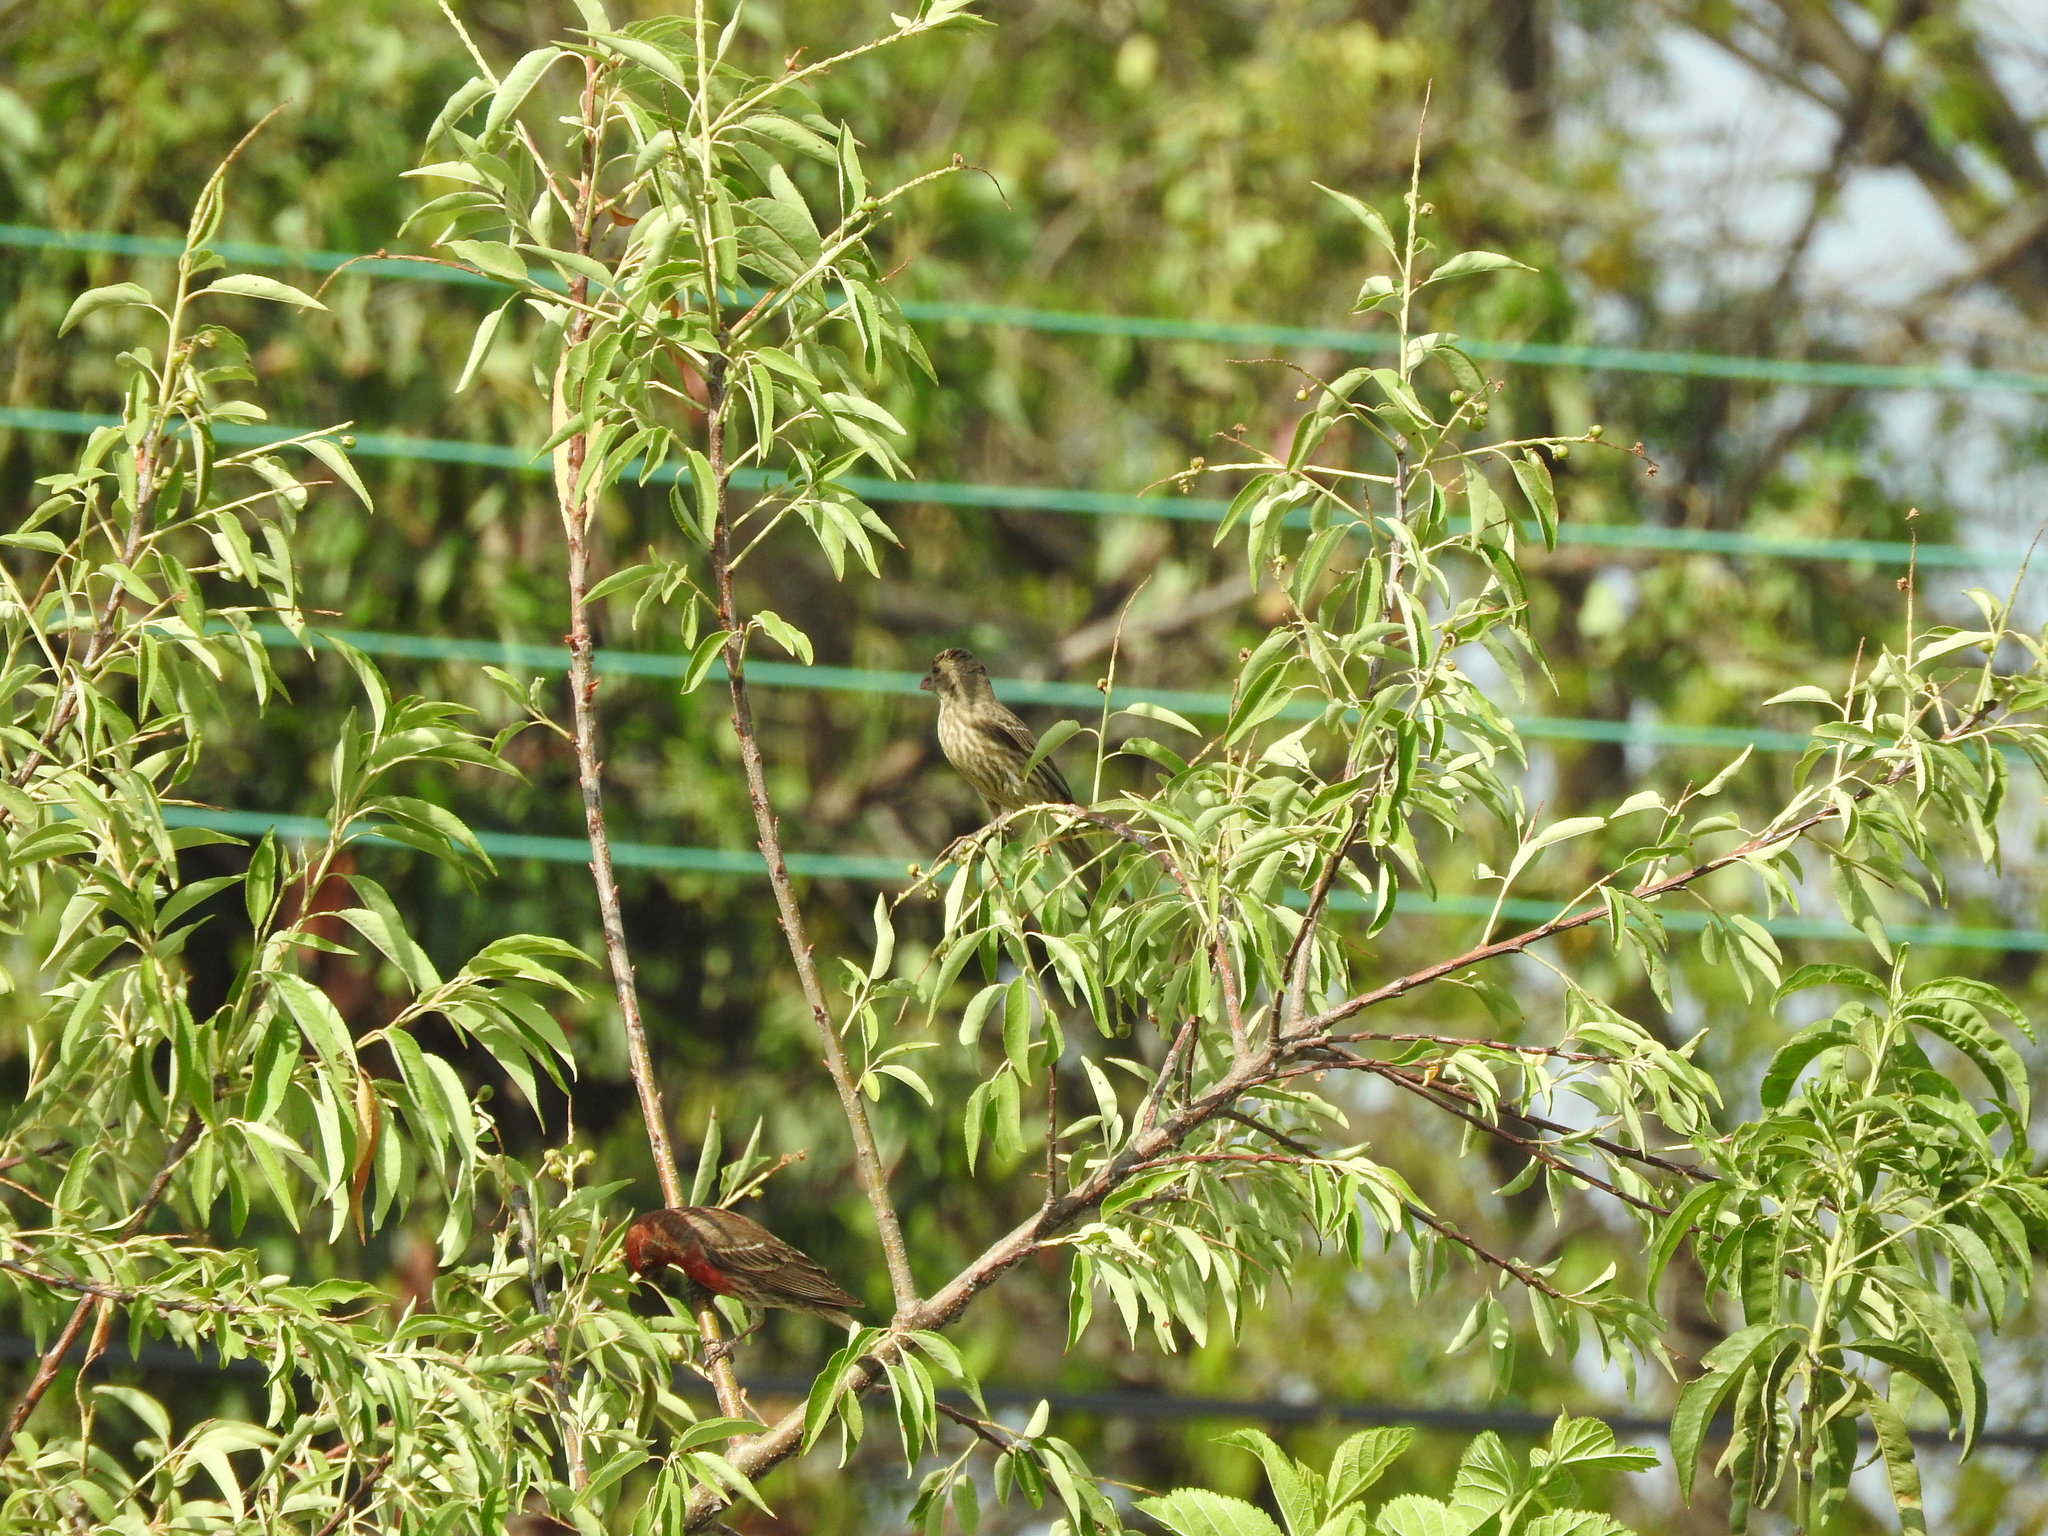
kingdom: Animalia
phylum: Chordata
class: Aves
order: Passeriformes
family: Fringillidae
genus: Haemorhous
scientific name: Haemorhous mexicanus
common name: House finch
